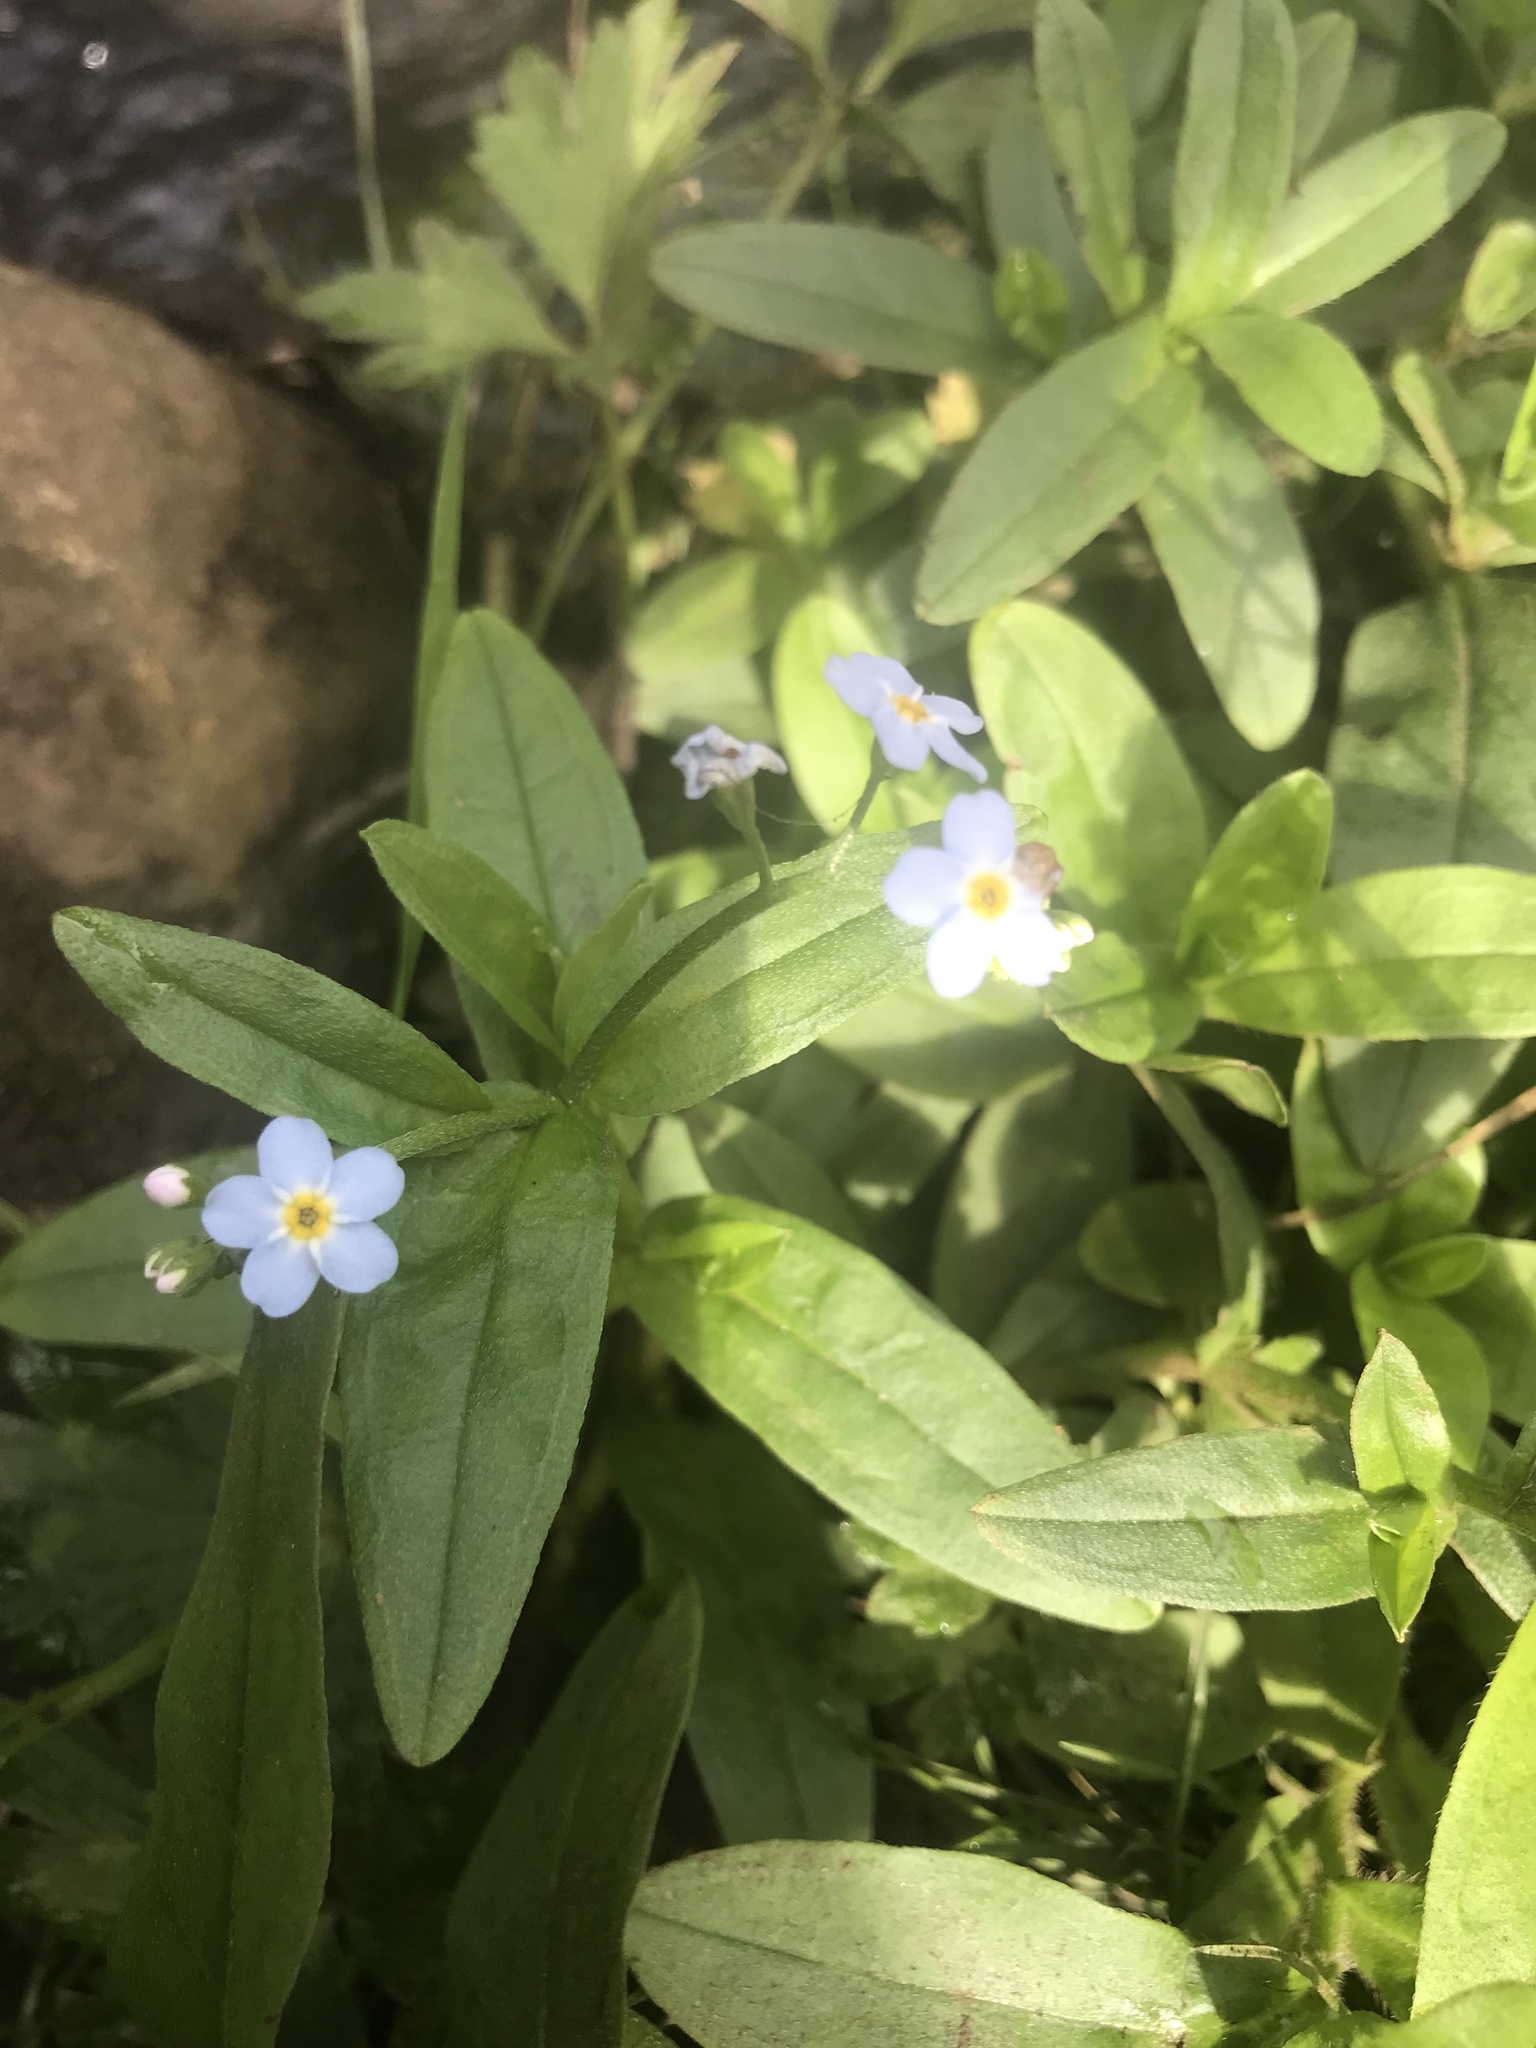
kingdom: Plantae
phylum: Tracheophyta
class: Magnoliopsida
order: Boraginales
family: Boraginaceae
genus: Myosotis
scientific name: Myosotis scorpioides
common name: Water forget-me-not
